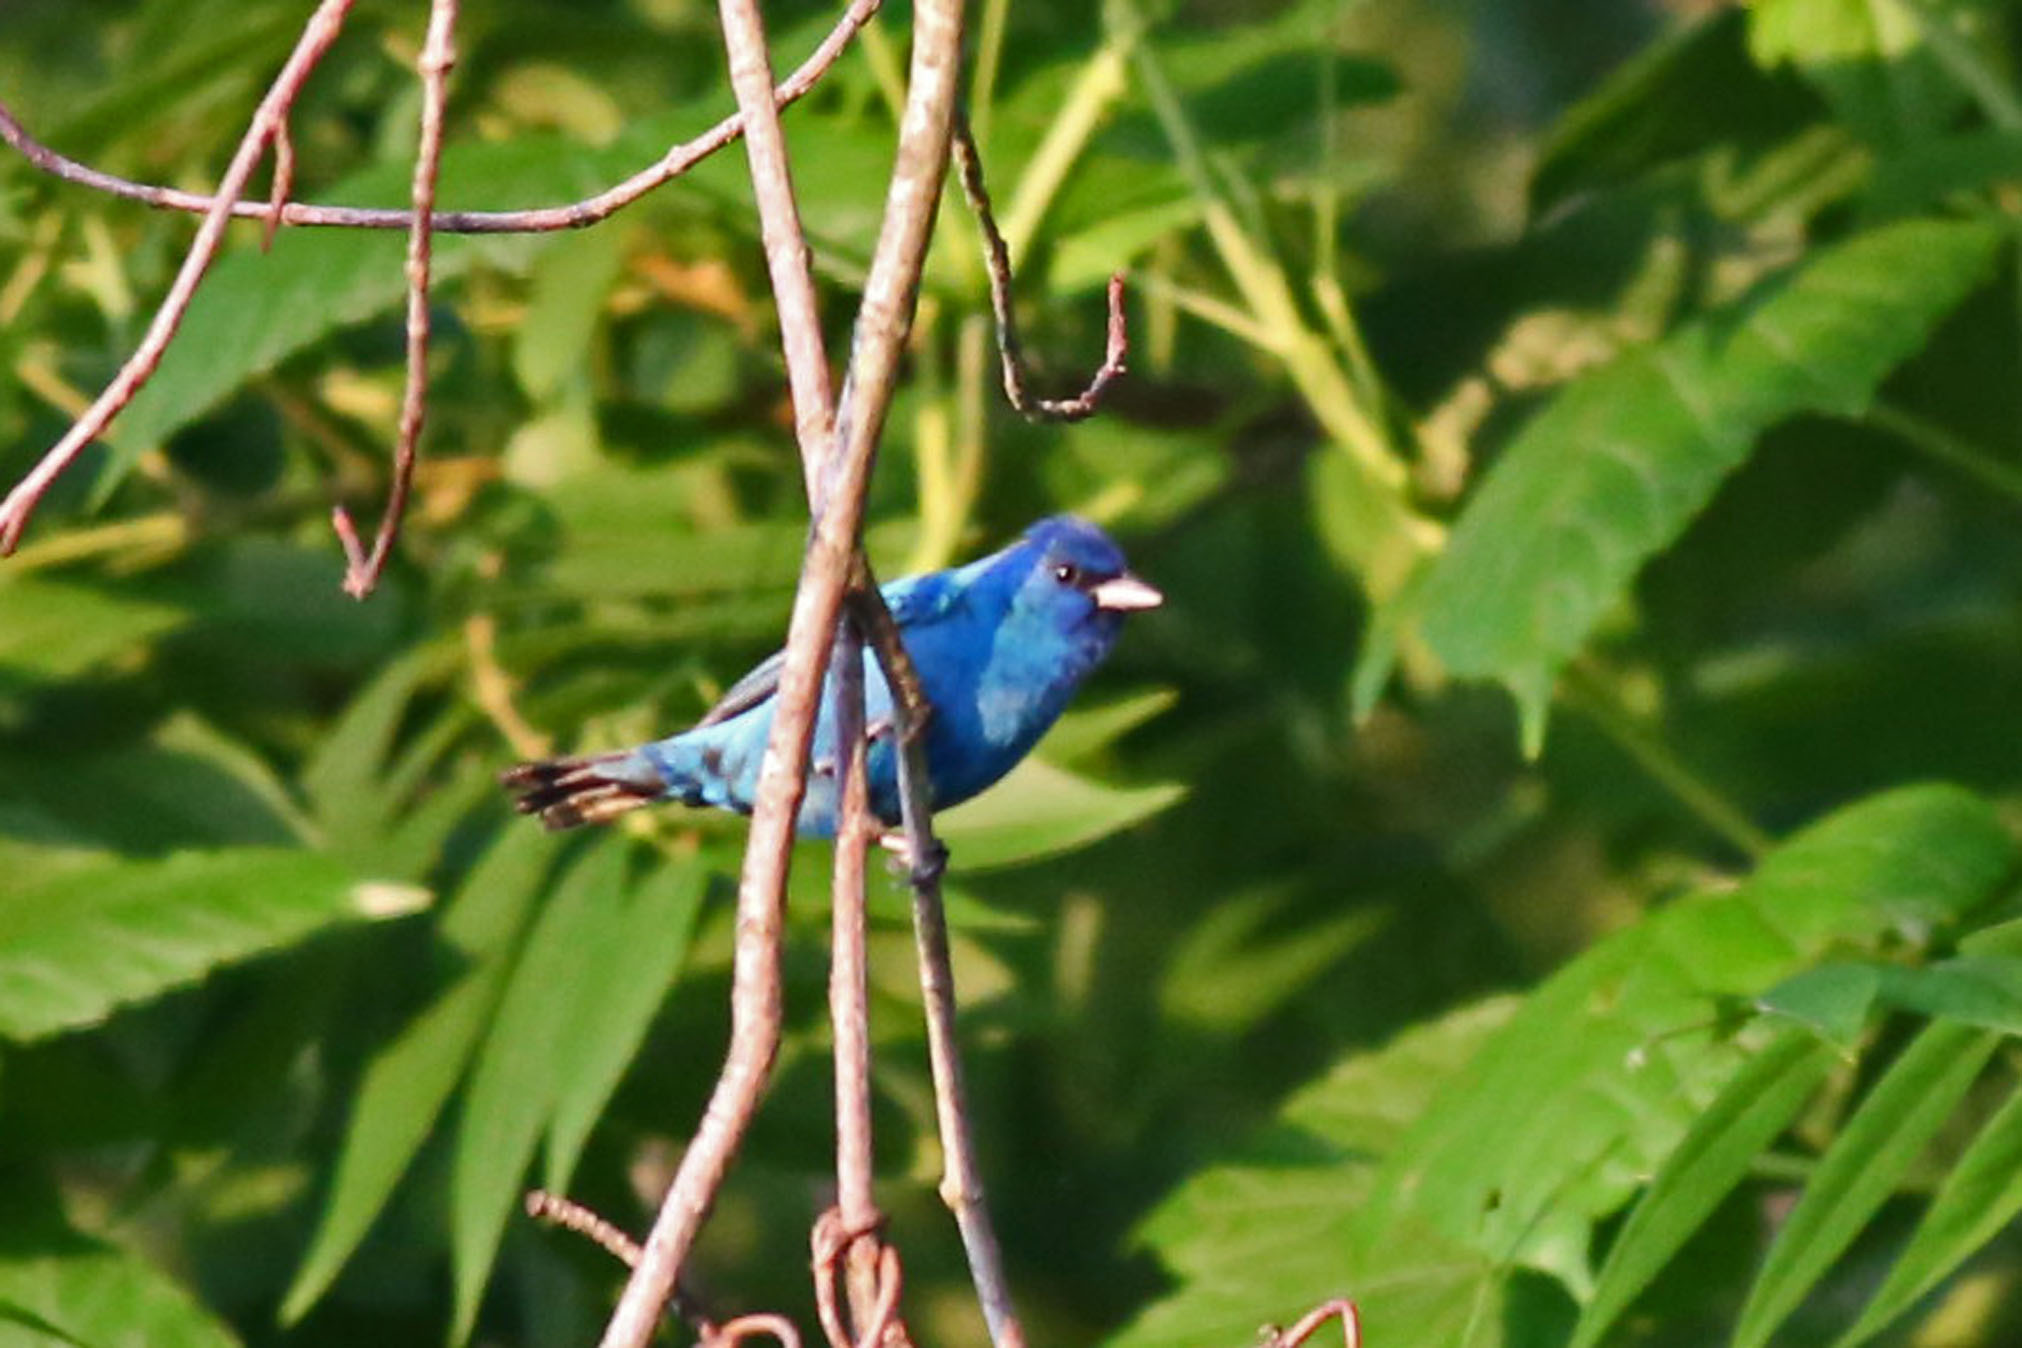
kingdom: Animalia
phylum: Chordata
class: Aves
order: Passeriformes
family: Cardinalidae
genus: Passerina
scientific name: Passerina cyanea
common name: Indigo bunting
